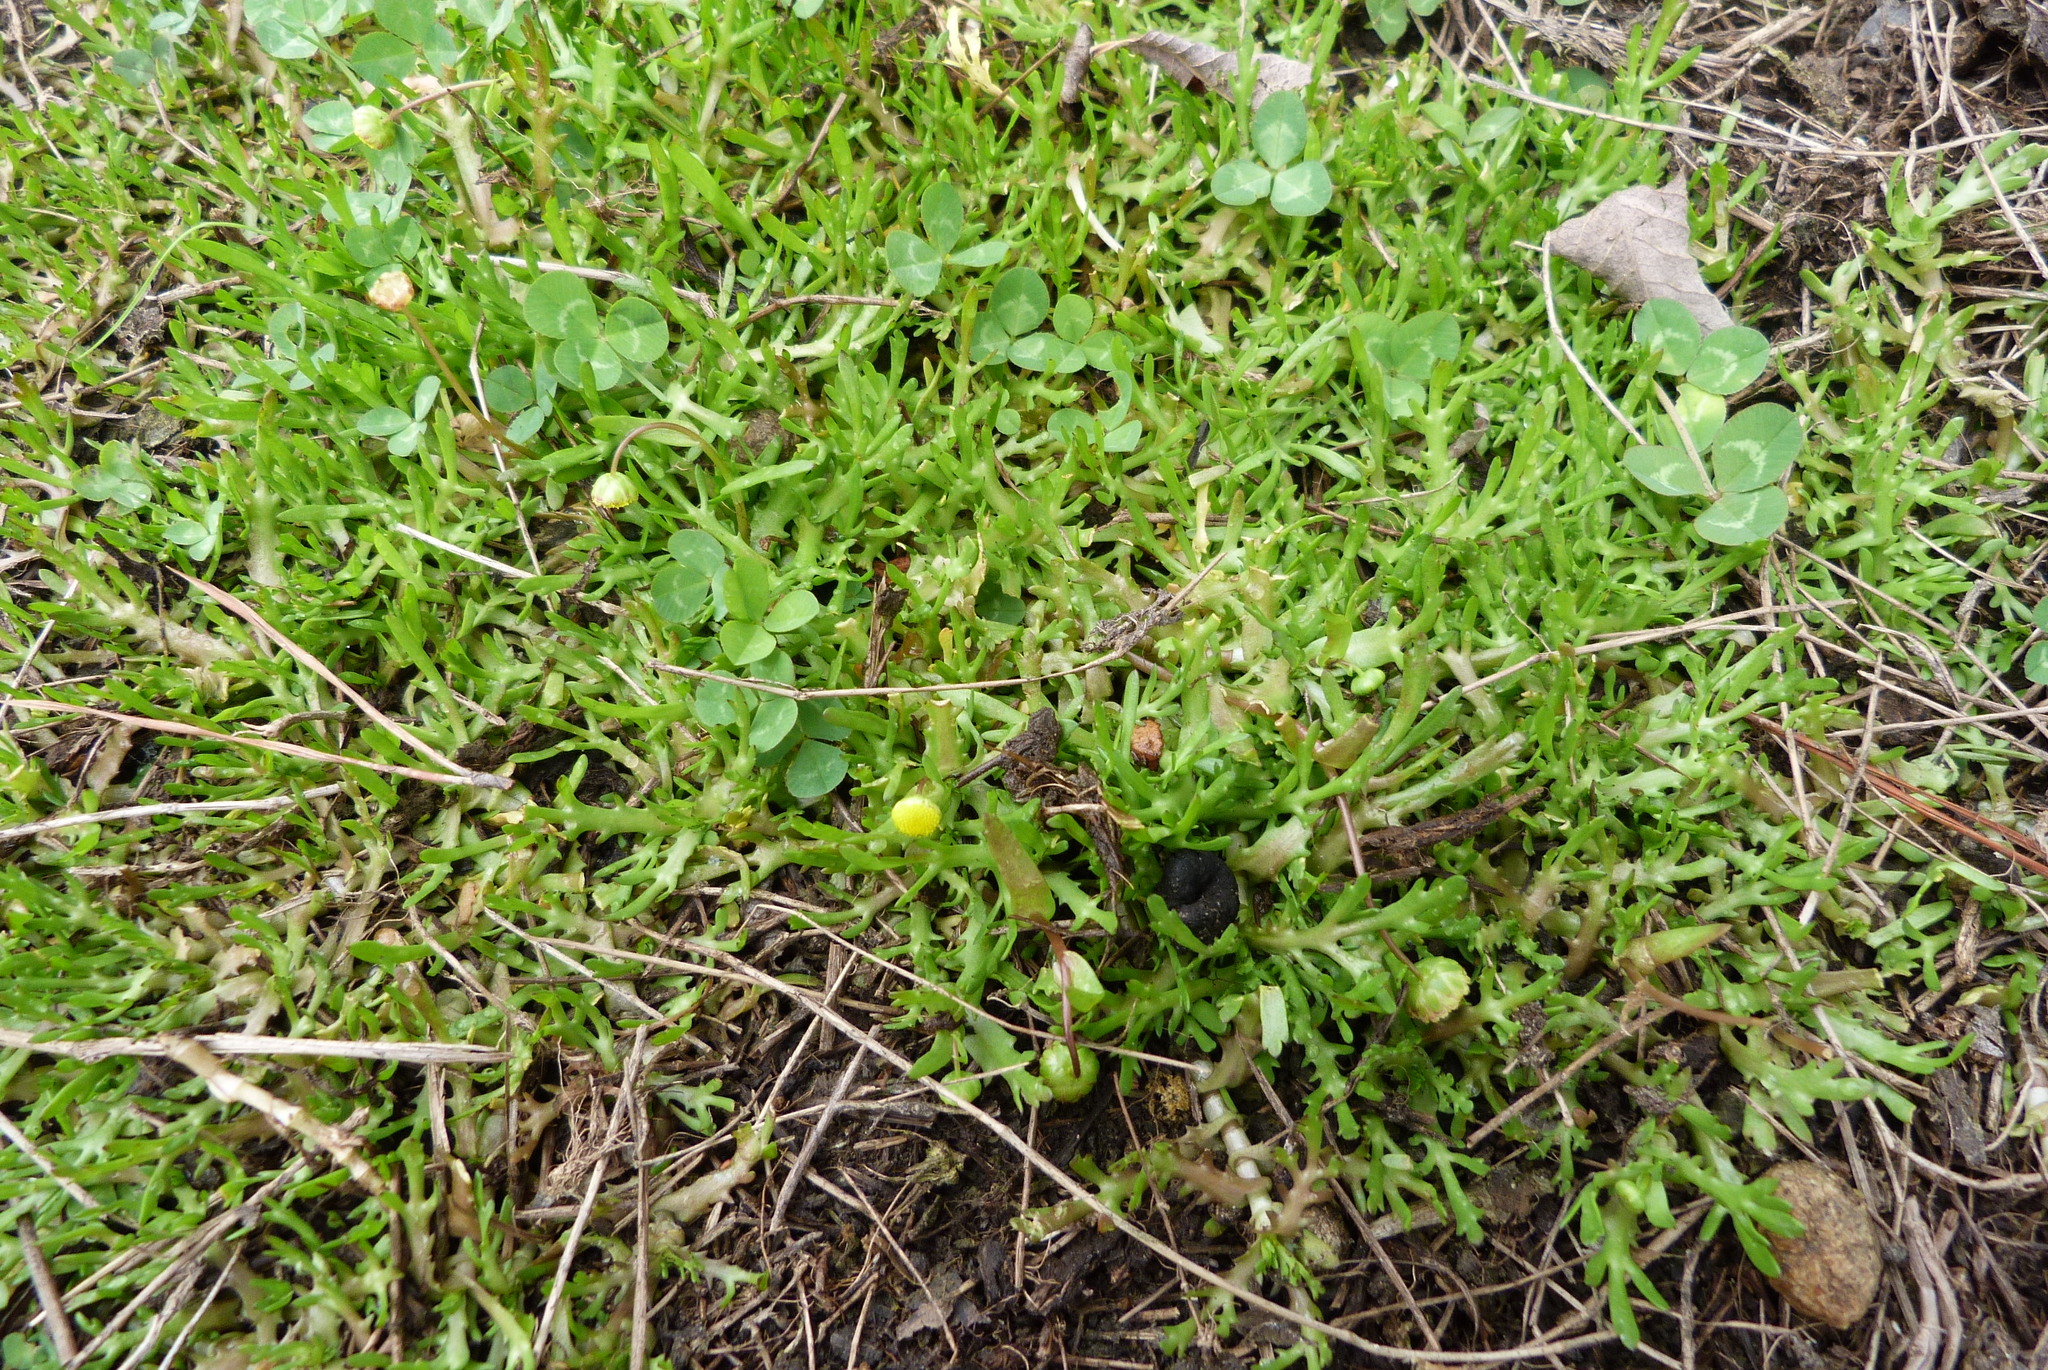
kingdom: Plantae
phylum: Tracheophyta
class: Magnoliopsida
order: Asterales
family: Asteraceae
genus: Cotula
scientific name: Cotula coronopifolia
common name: Buttonweed
